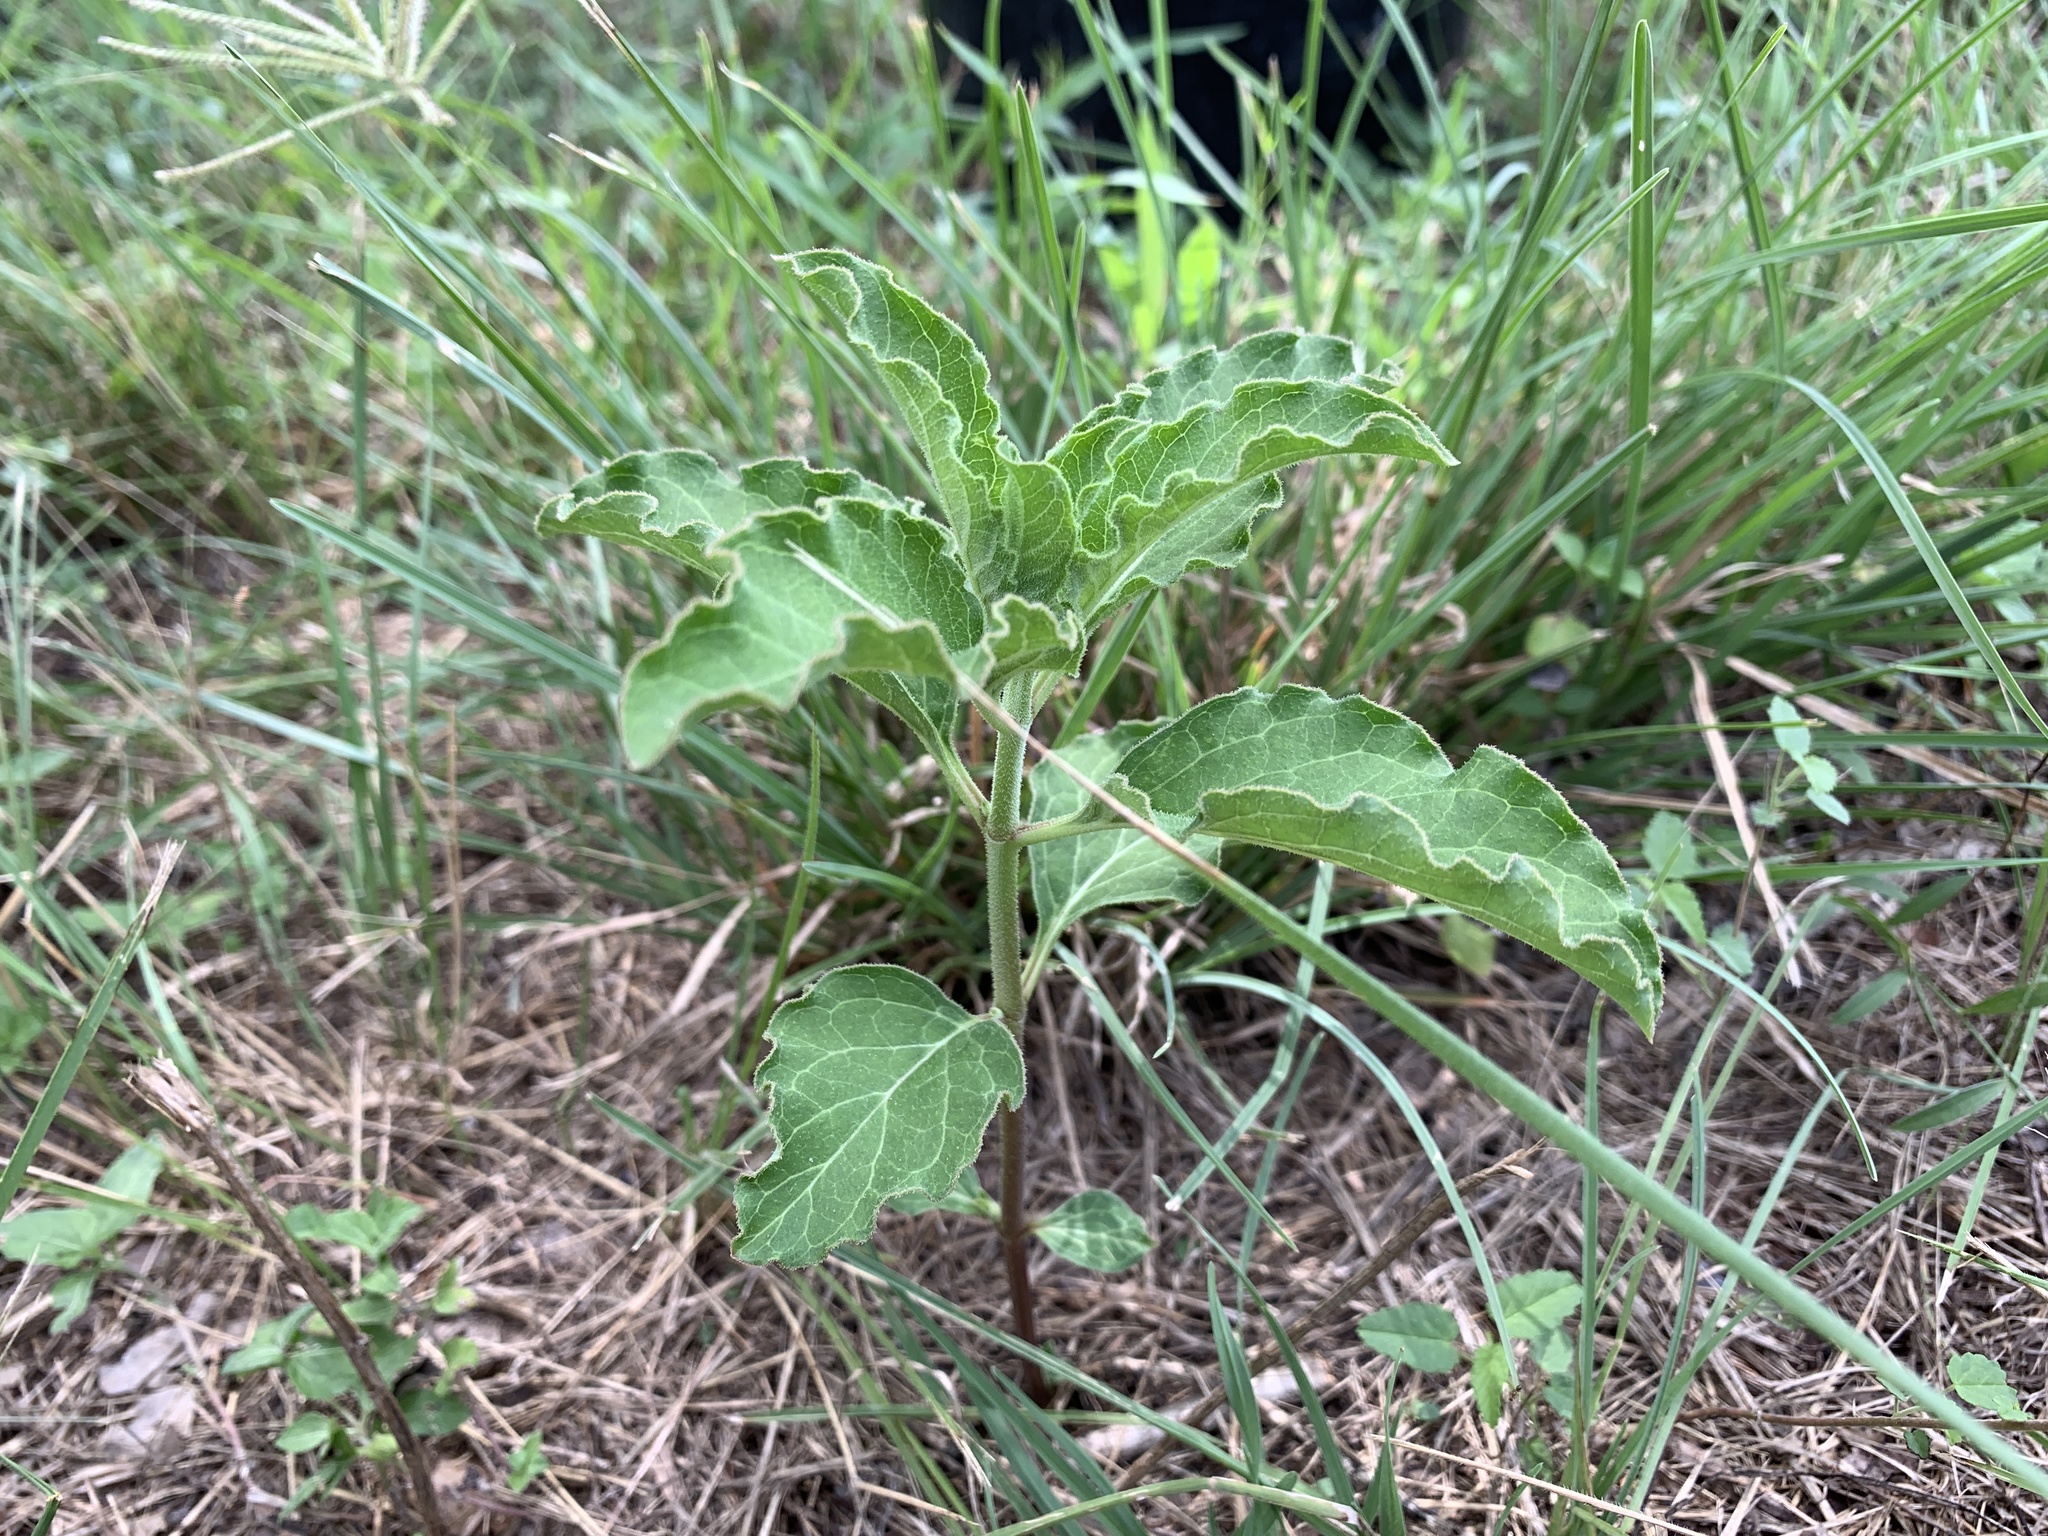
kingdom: Plantae
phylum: Tracheophyta
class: Magnoliopsida
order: Gentianales
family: Apocynaceae
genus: Asclepias
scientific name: Asclepias oenotheroides
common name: Zizotes milkweed
